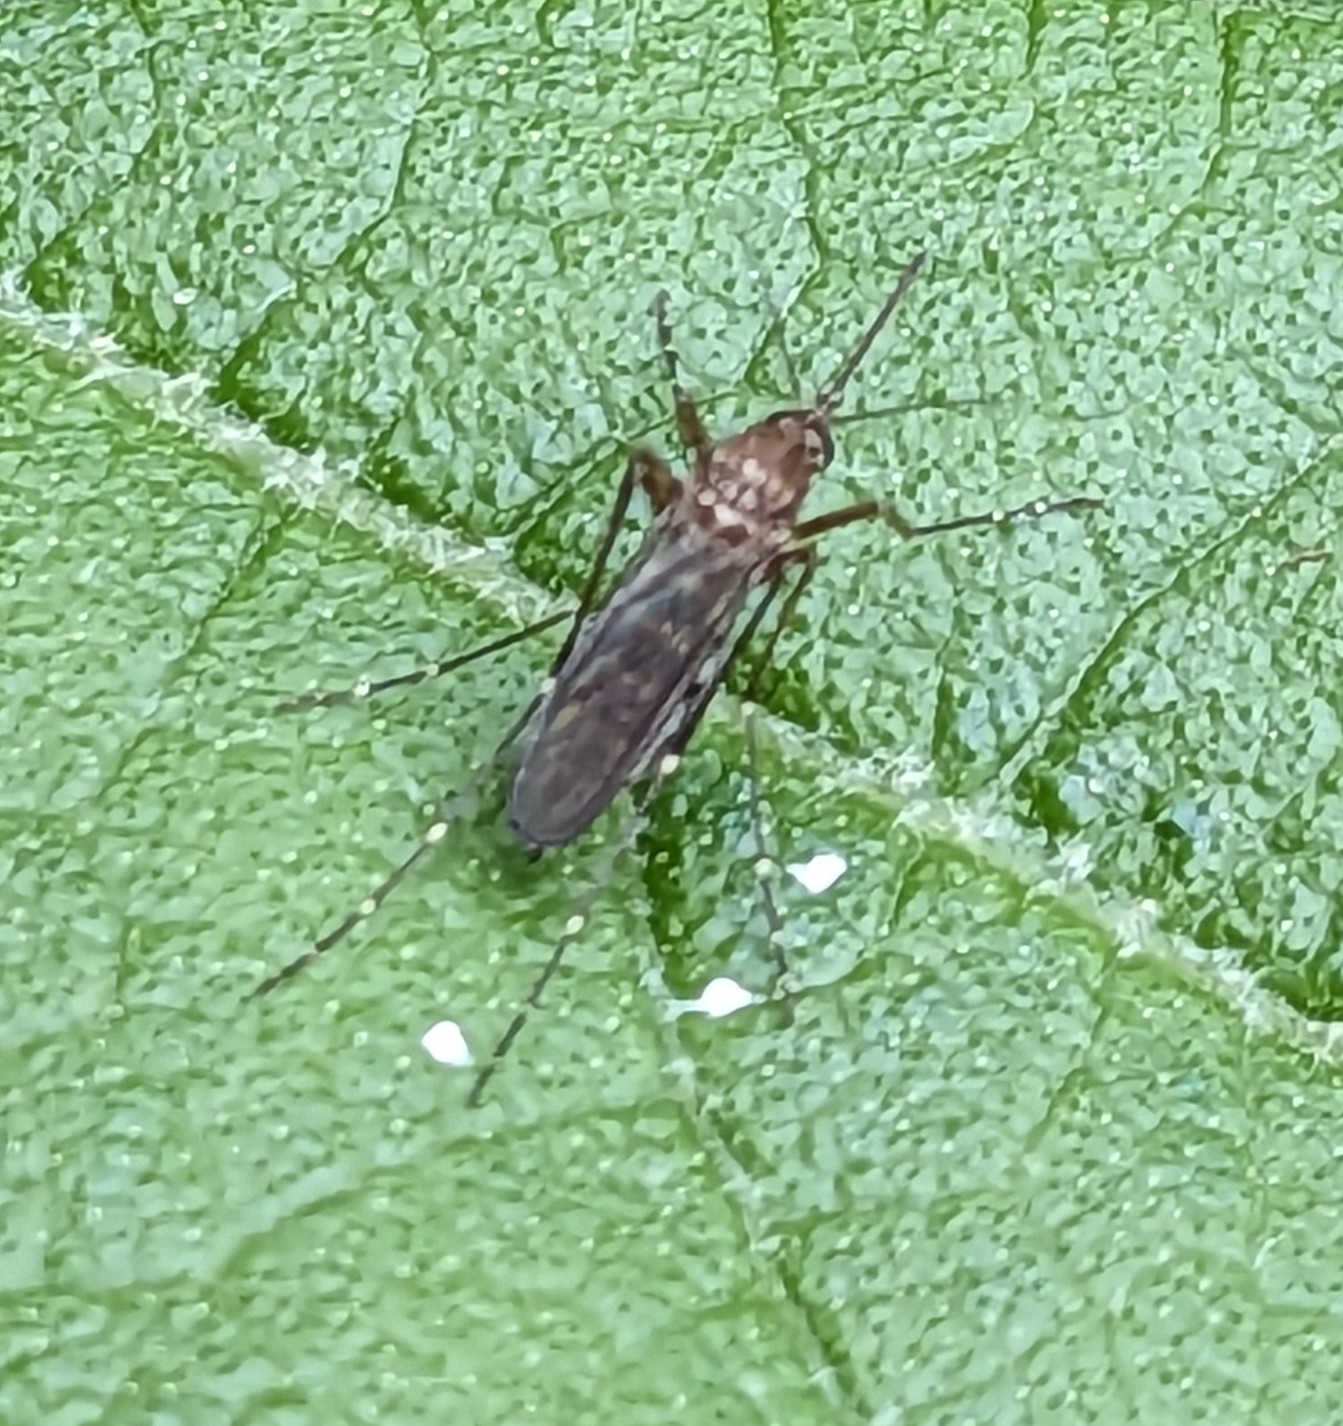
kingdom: Animalia
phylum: Arthropoda
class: Insecta
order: Diptera
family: Culicidae
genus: Aedes
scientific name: Aedes vexans
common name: Inland floodwater mosquito
